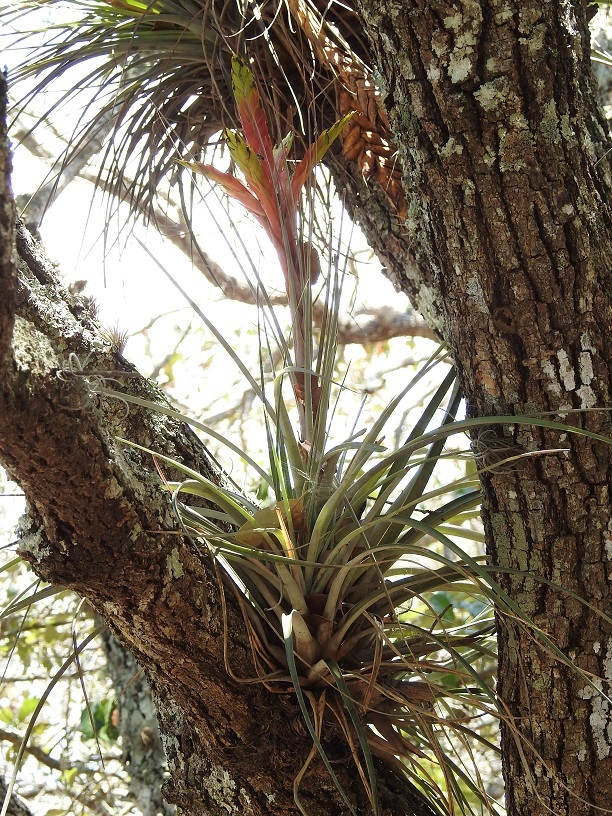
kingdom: Plantae
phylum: Tracheophyta
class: Liliopsida
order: Poales
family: Bromeliaceae
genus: Tillandsia
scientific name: Tillandsia fasciculata
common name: Giant airplant
